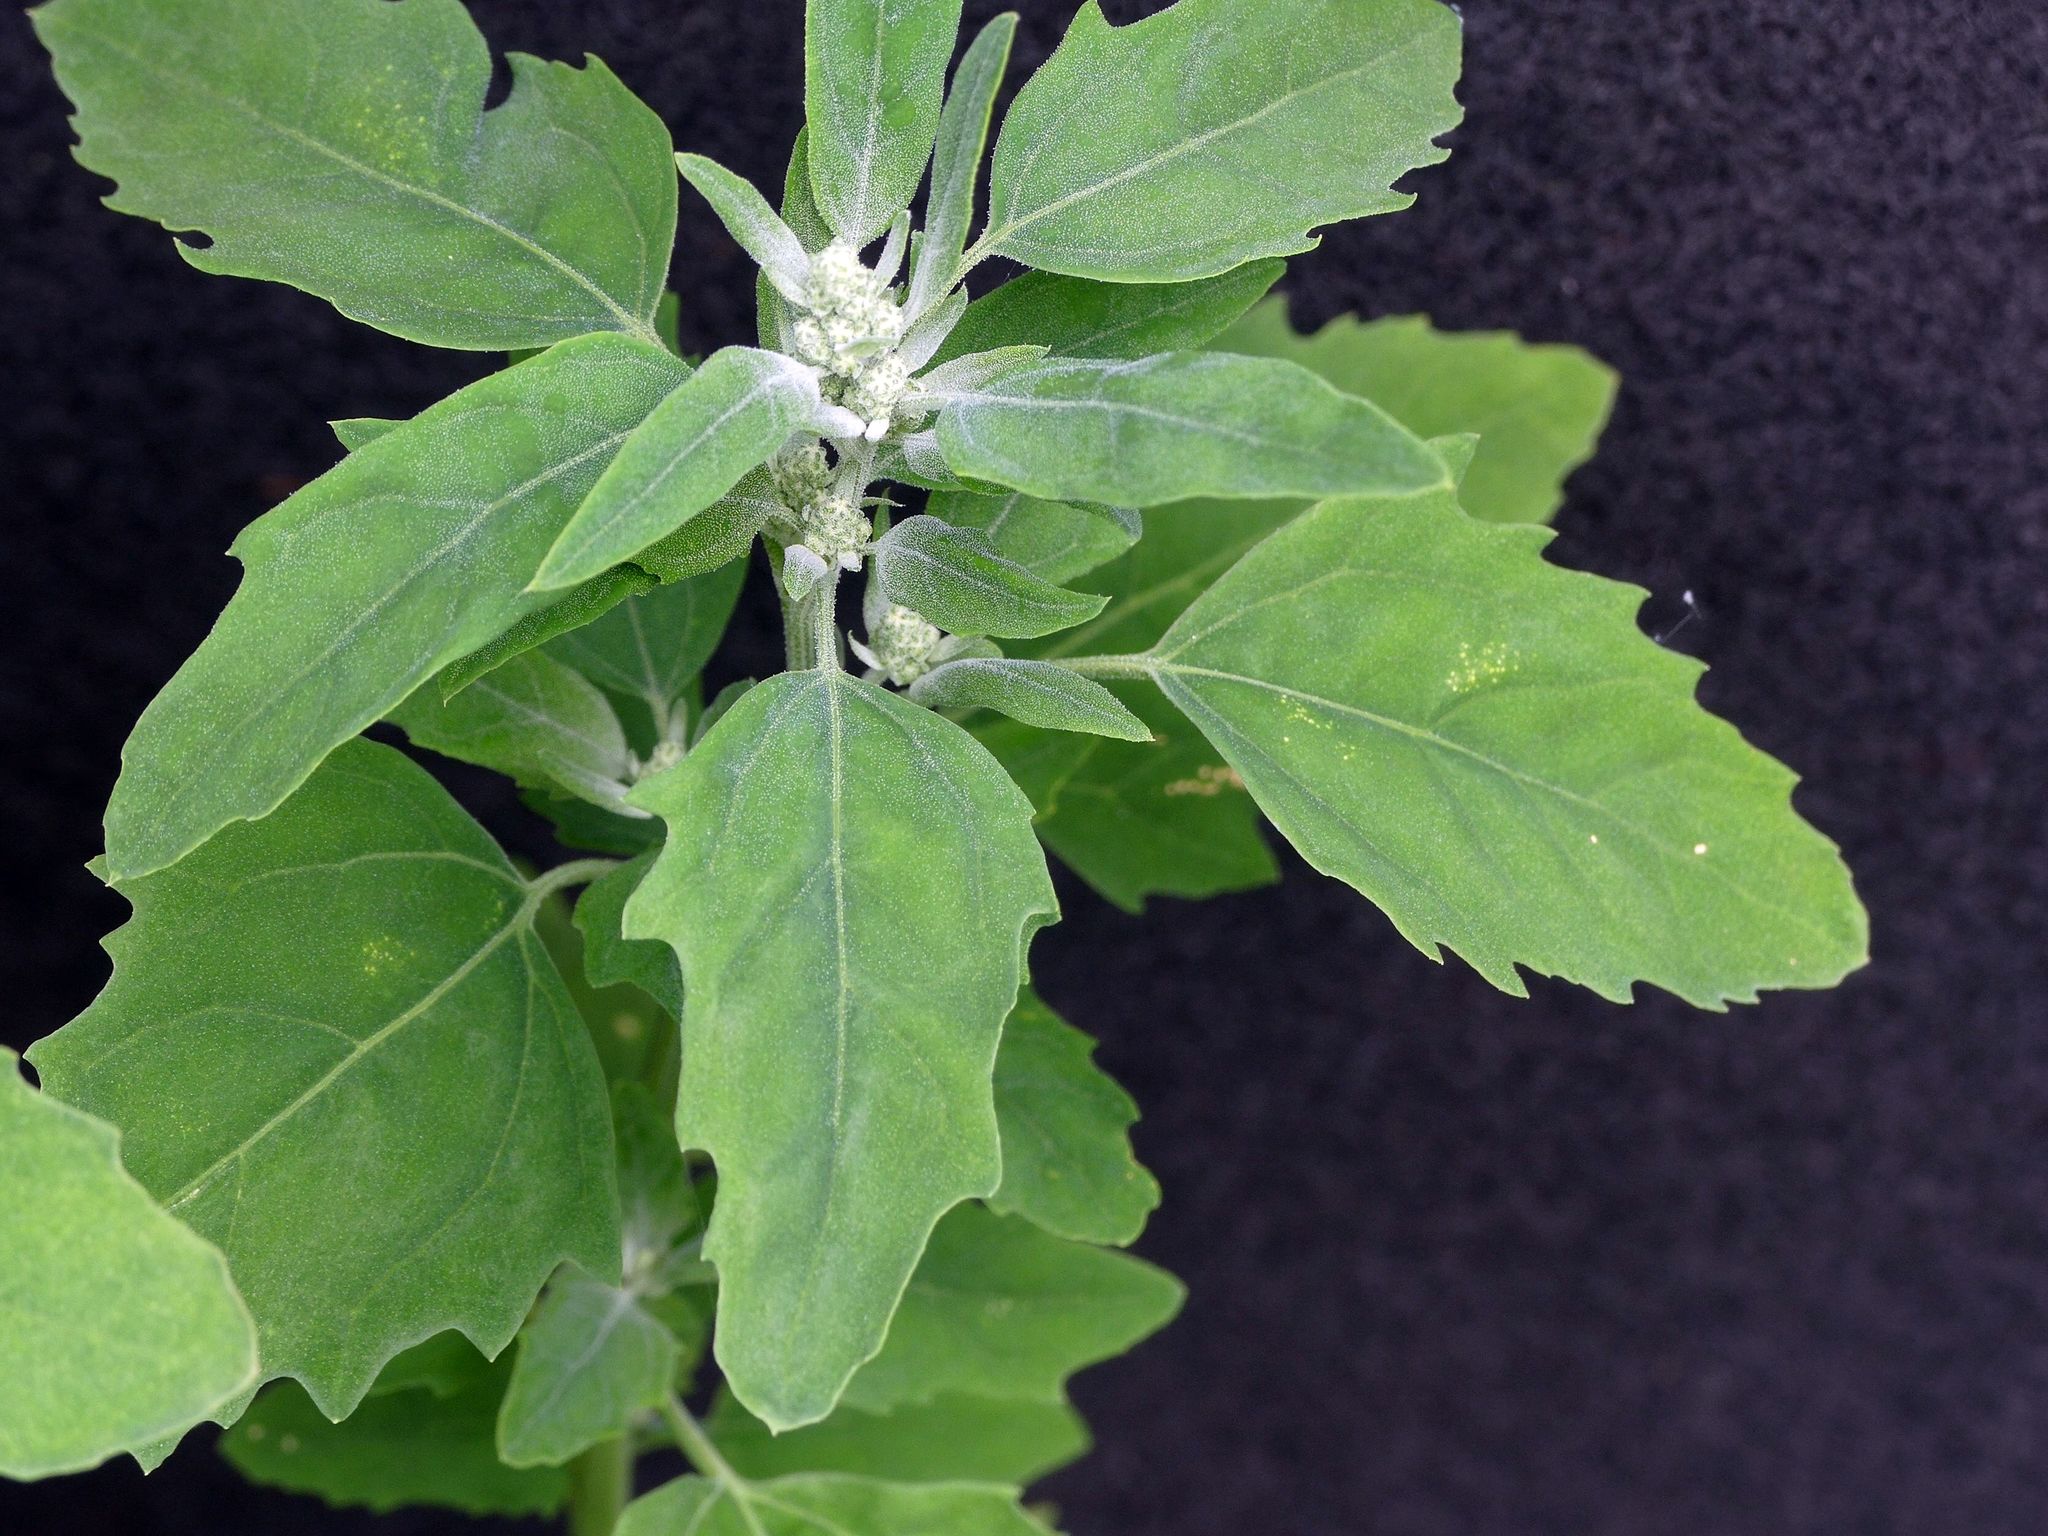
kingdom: Plantae
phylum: Tracheophyta
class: Magnoliopsida
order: Caryophyllales
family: Amaranthaceae
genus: Chenopodium
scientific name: Chenopodium album
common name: Fat-hen
